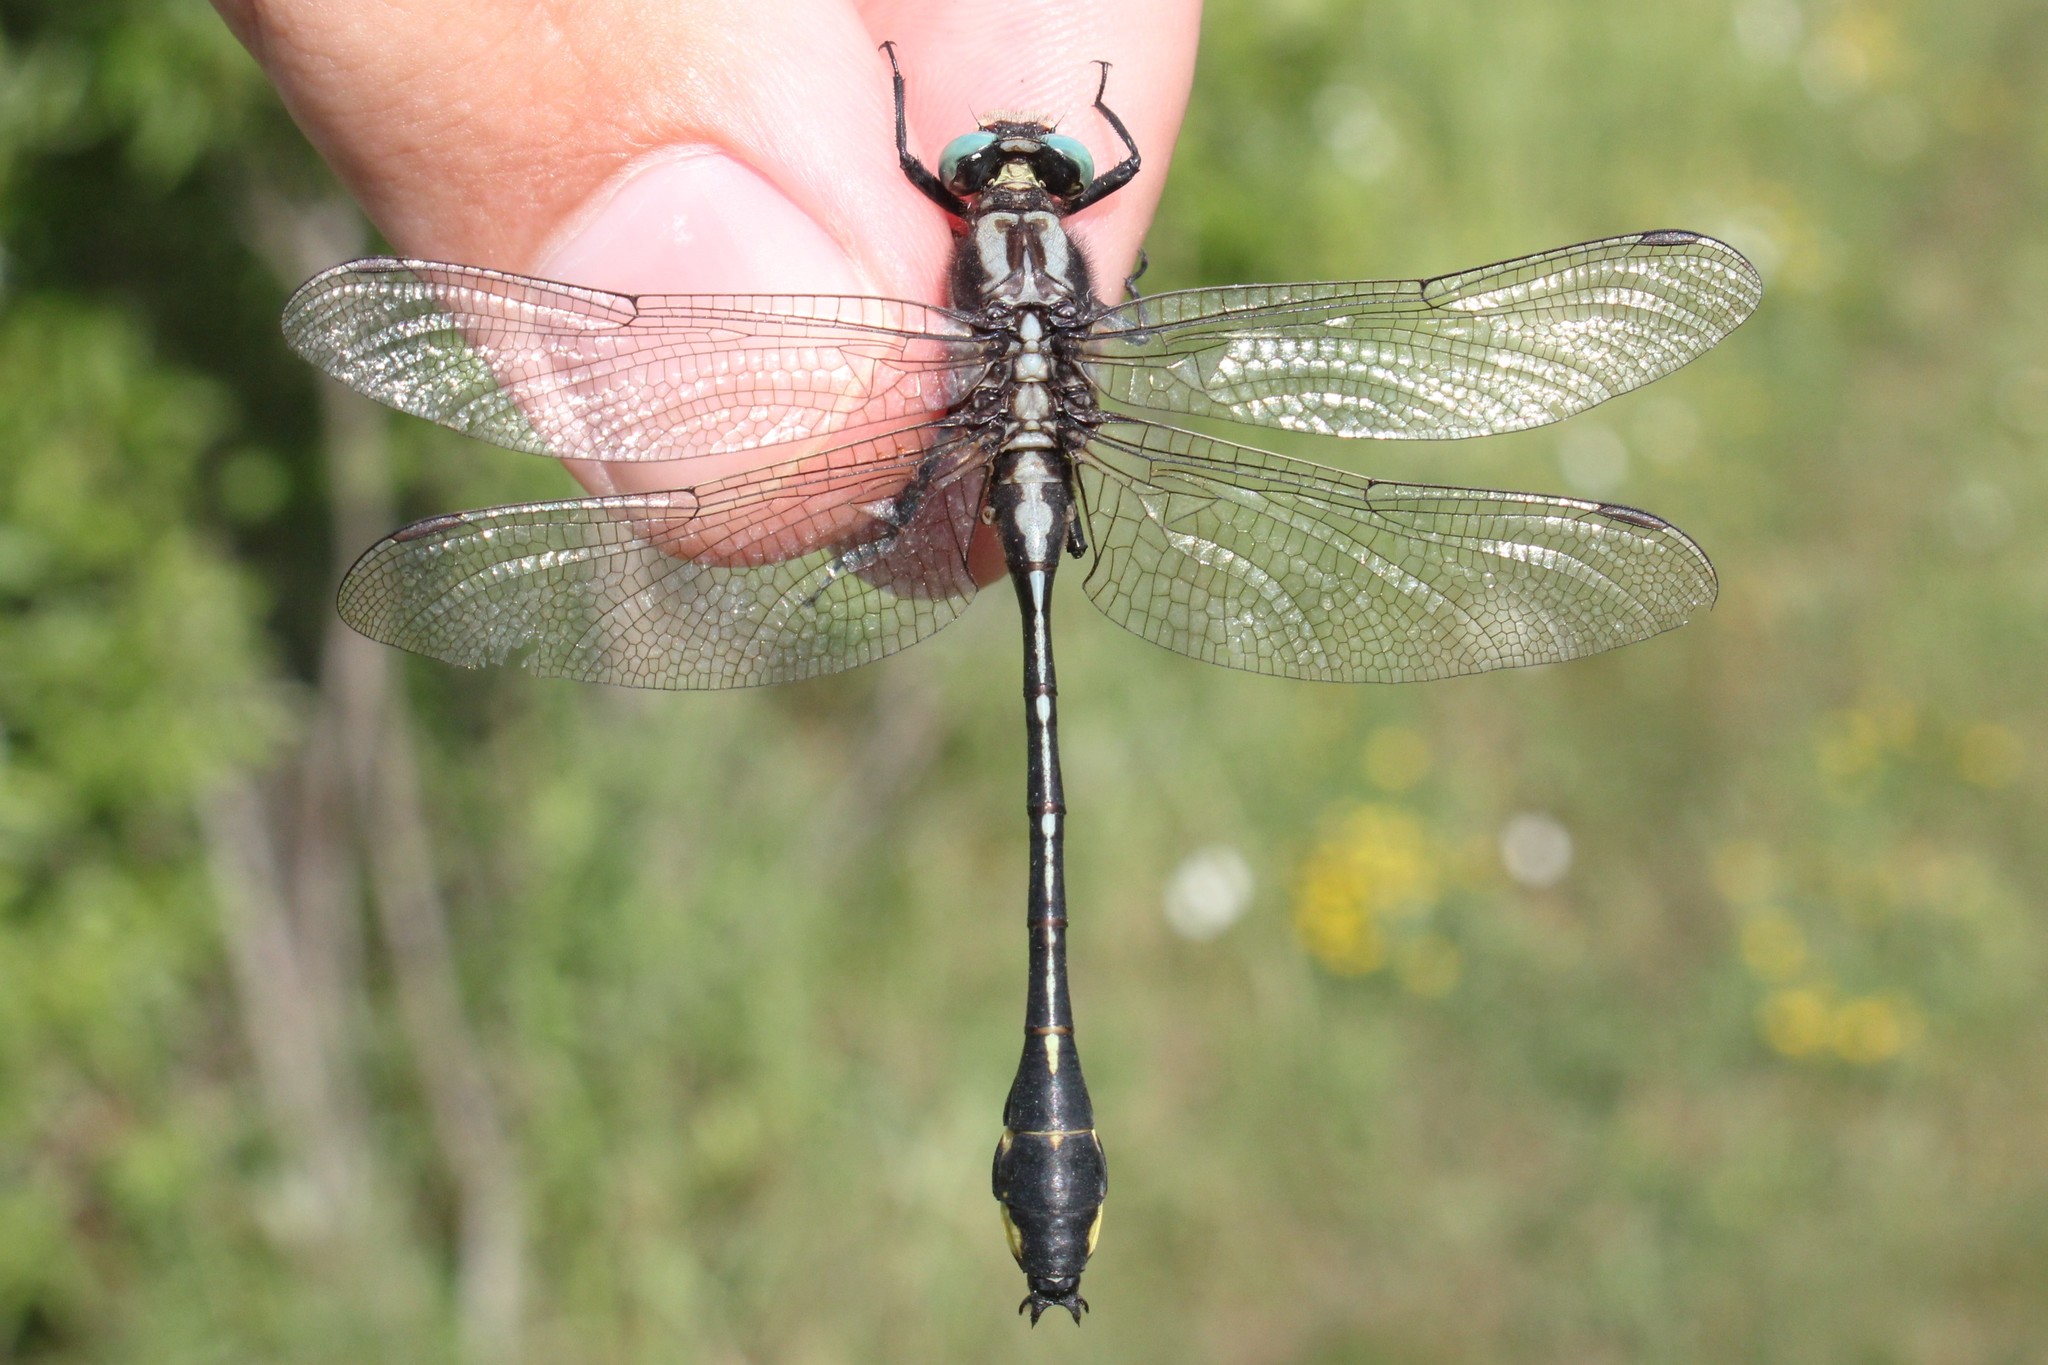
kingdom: Animalia
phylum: Arthropoda
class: Insecta
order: Odonata
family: Gomphidae
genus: Gomphurus
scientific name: Gomphurus fraternus
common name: Midland clubtail
